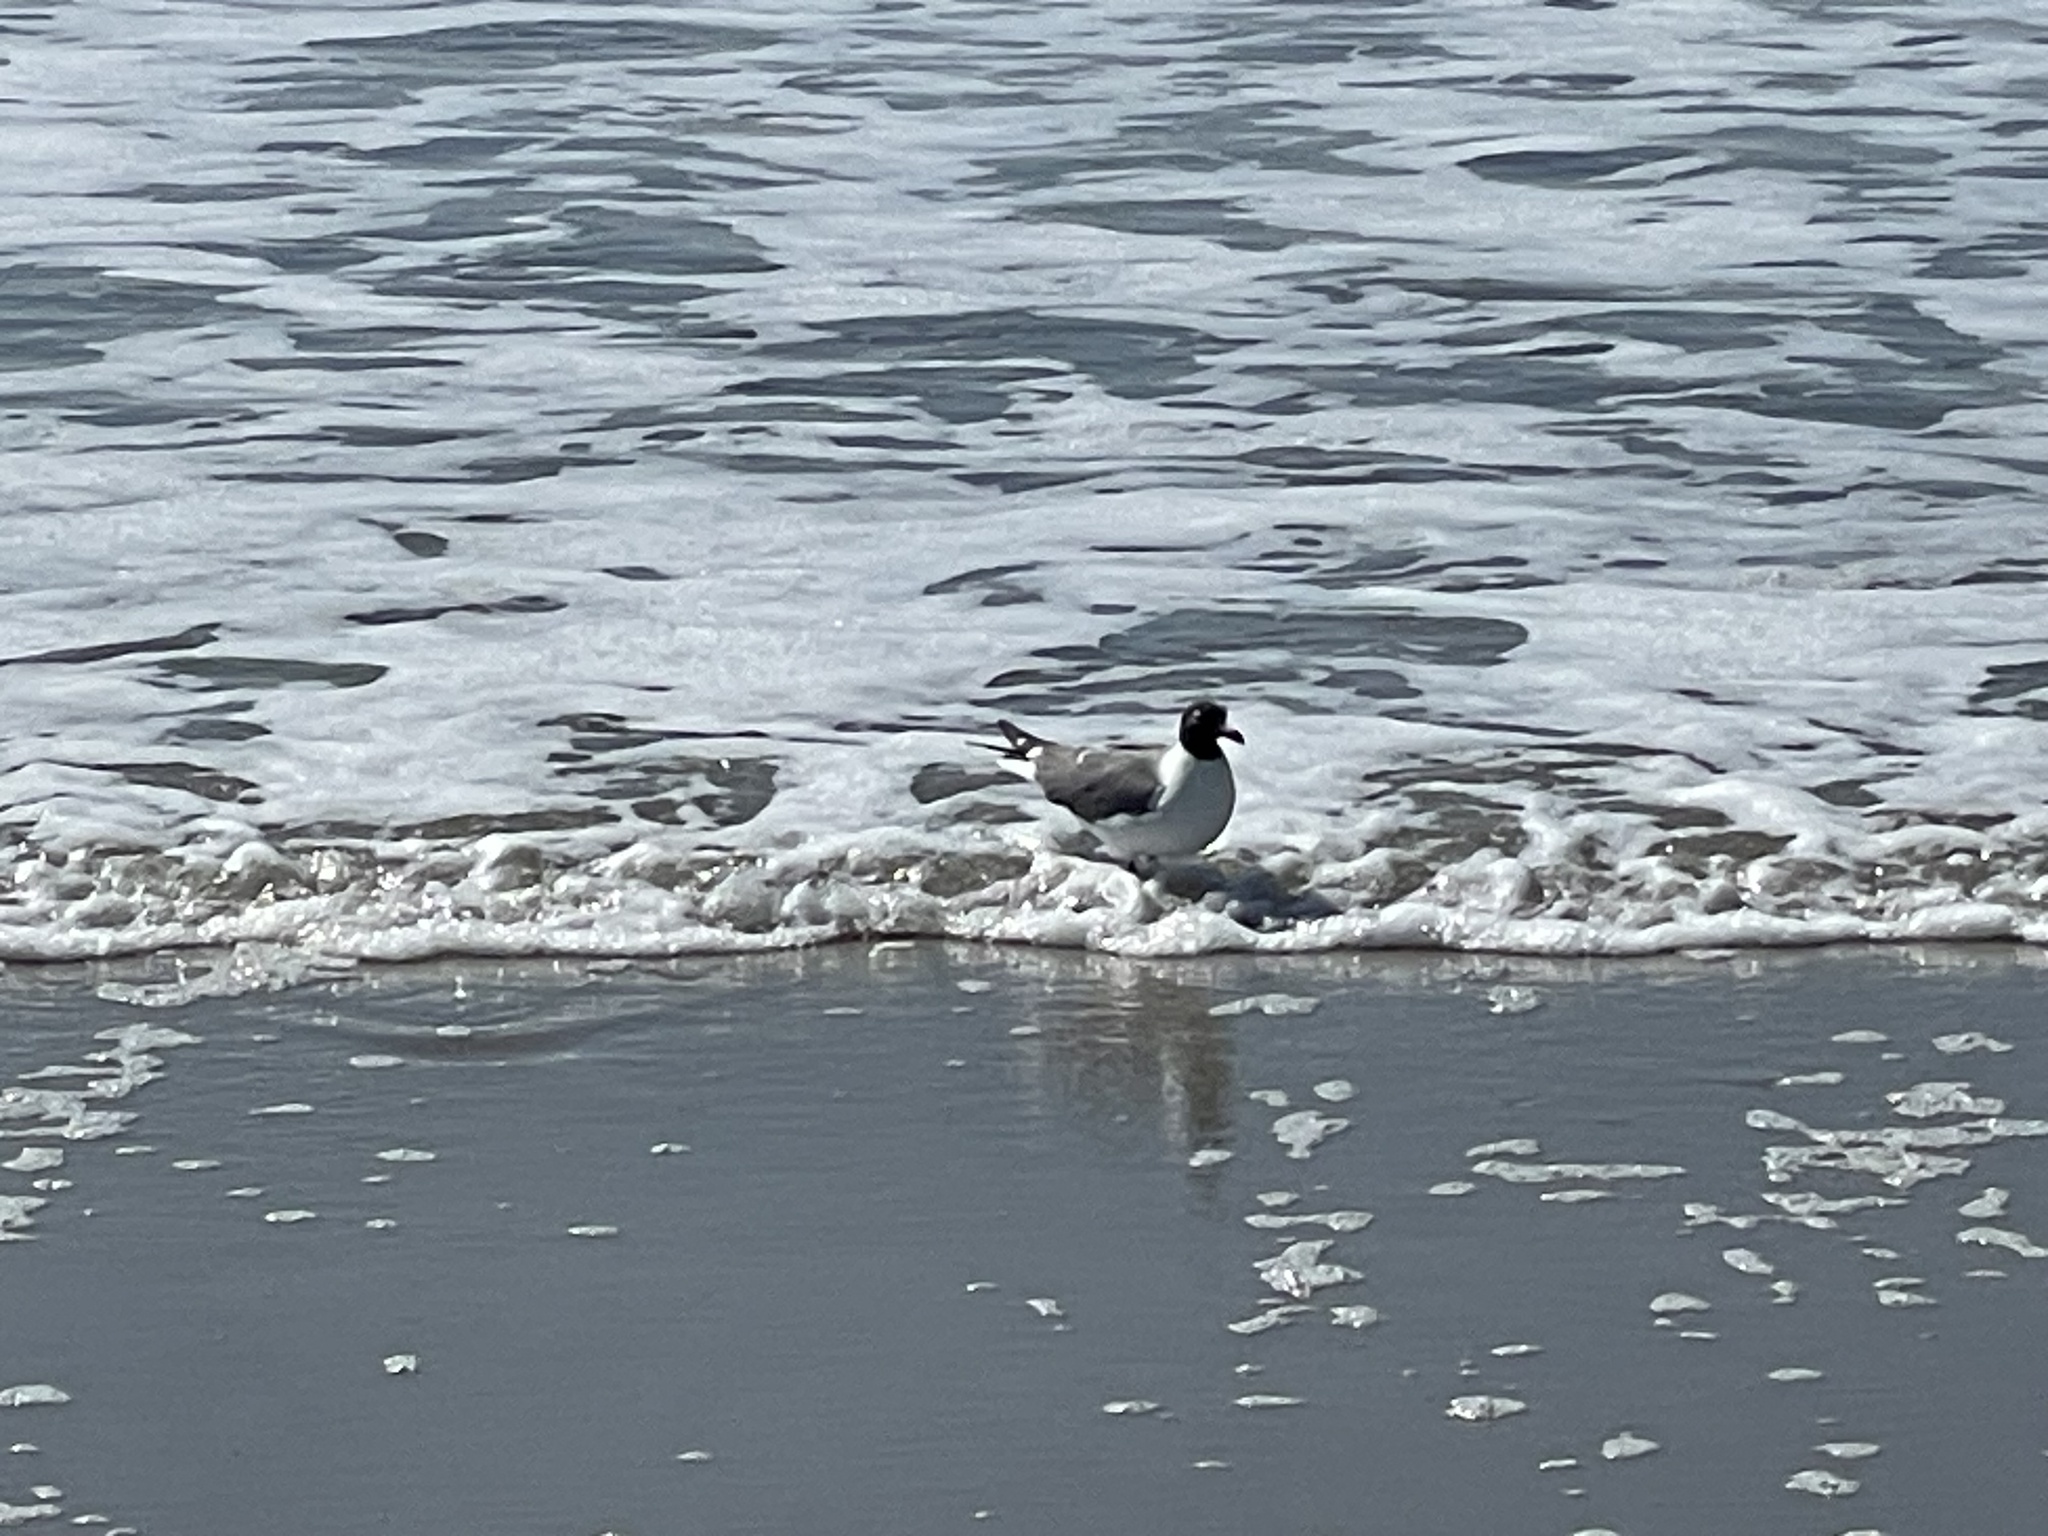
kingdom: Animalia
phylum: Chordata
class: Aves
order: Charadriiformes
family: Laridae
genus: Leucophaeus
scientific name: Leucophaeus atricilla
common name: Laughing gull
